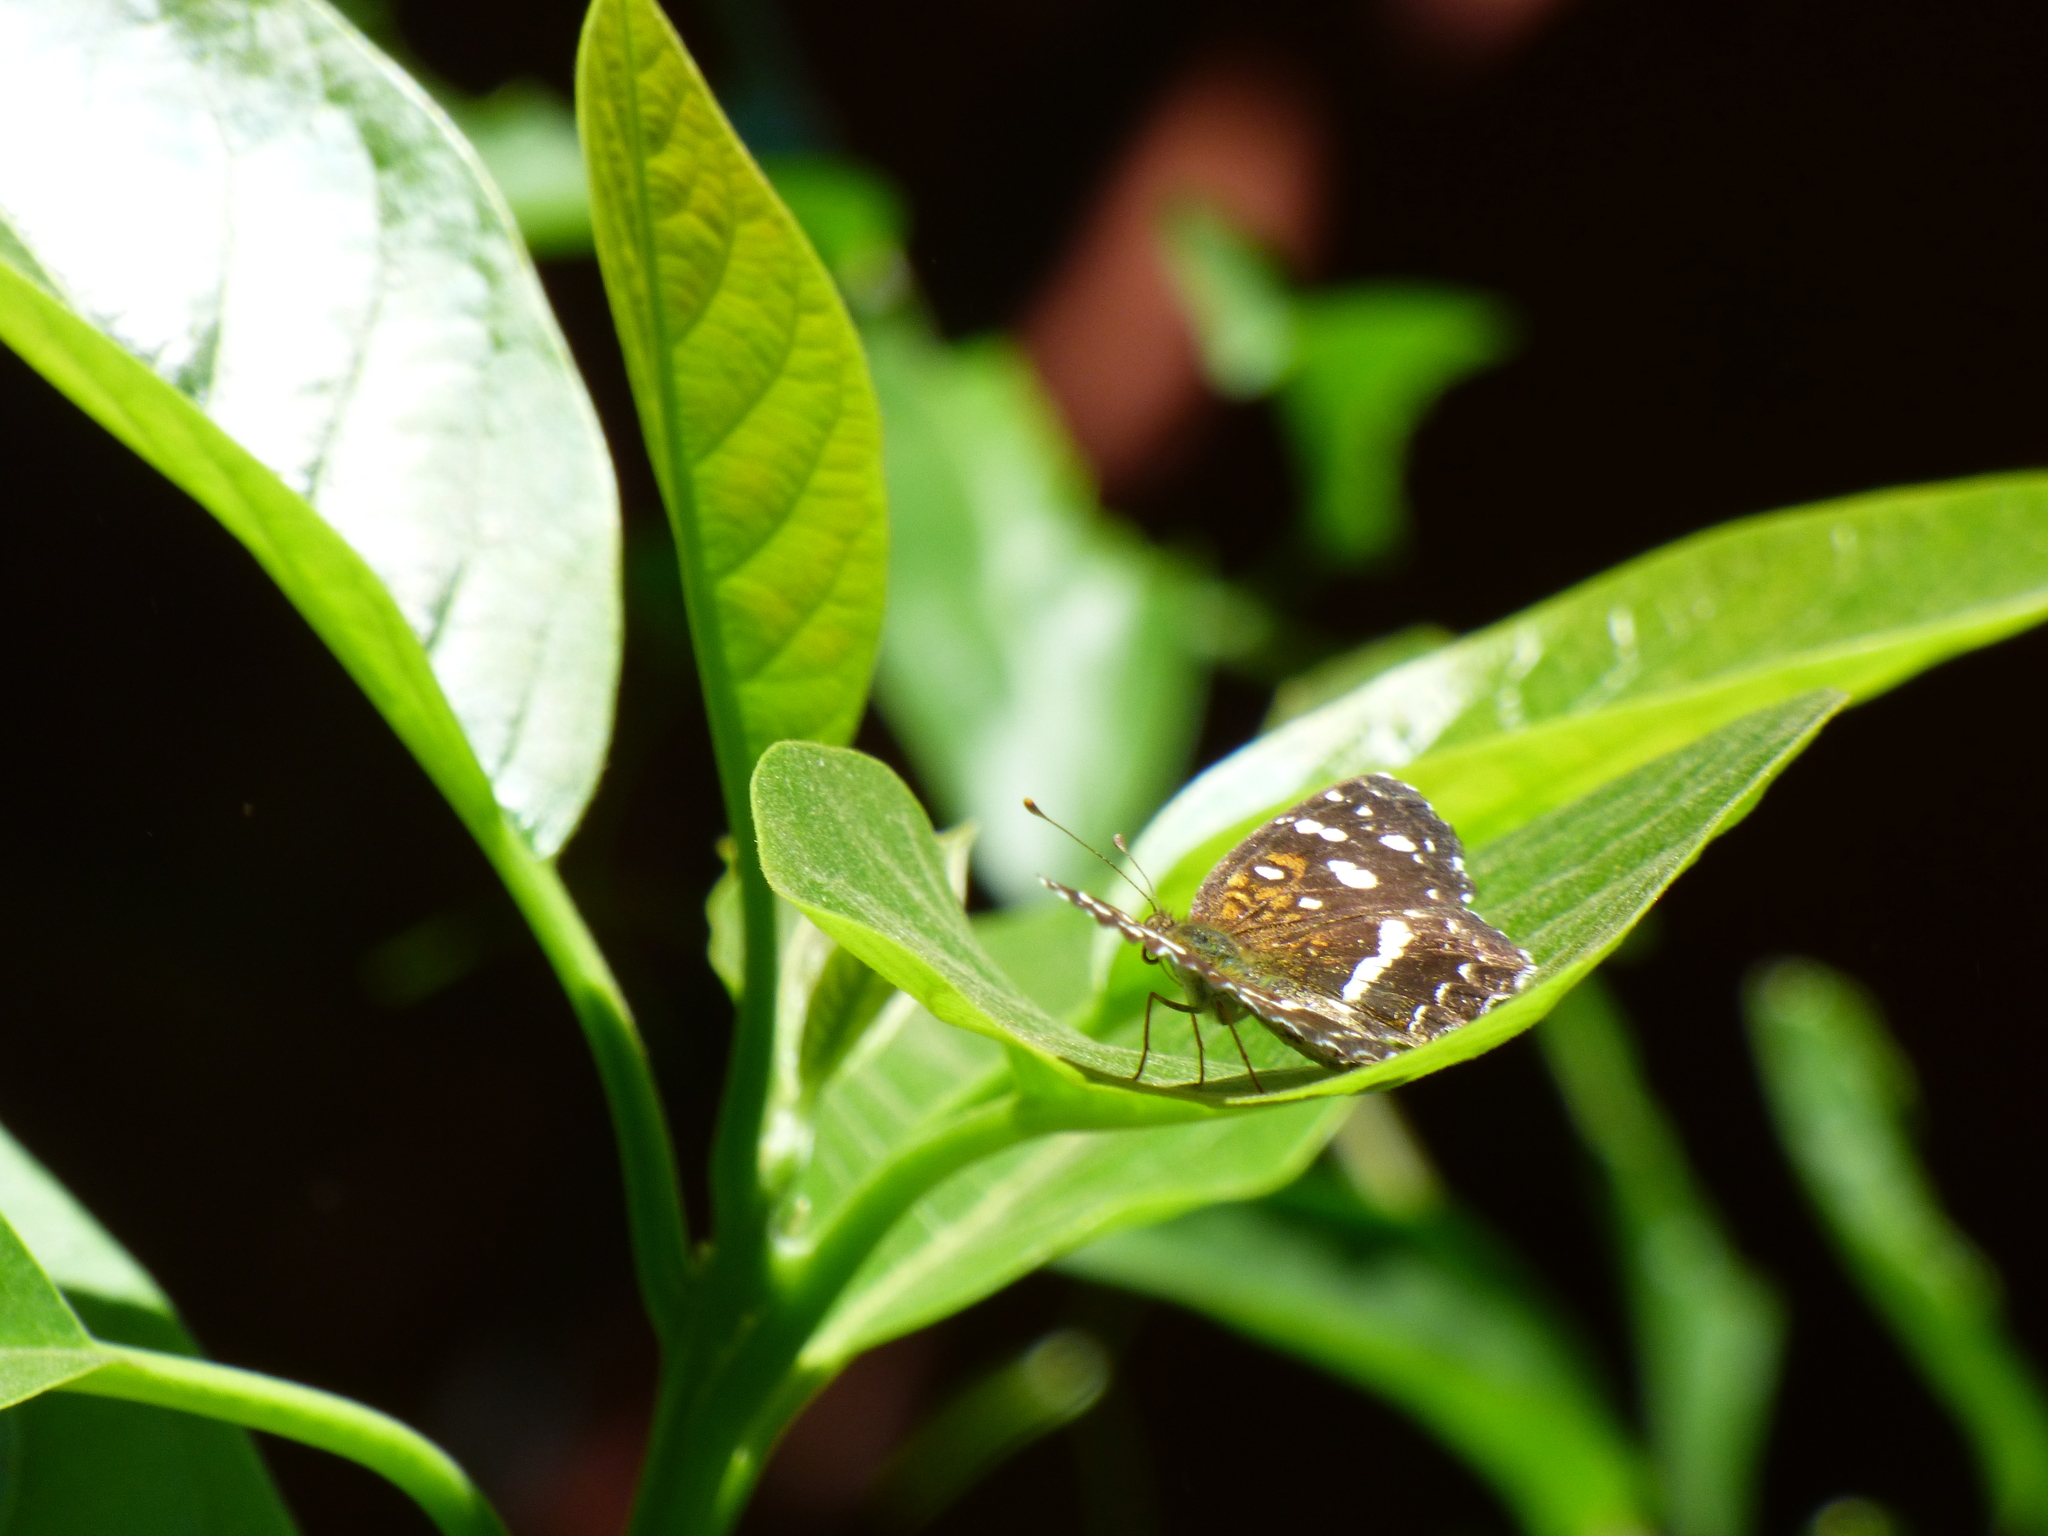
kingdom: Animalia
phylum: Arthropoda
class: Insecta
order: Lepidoptera
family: Nymphalidae
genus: Ortilia
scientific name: Ortilia ithra
